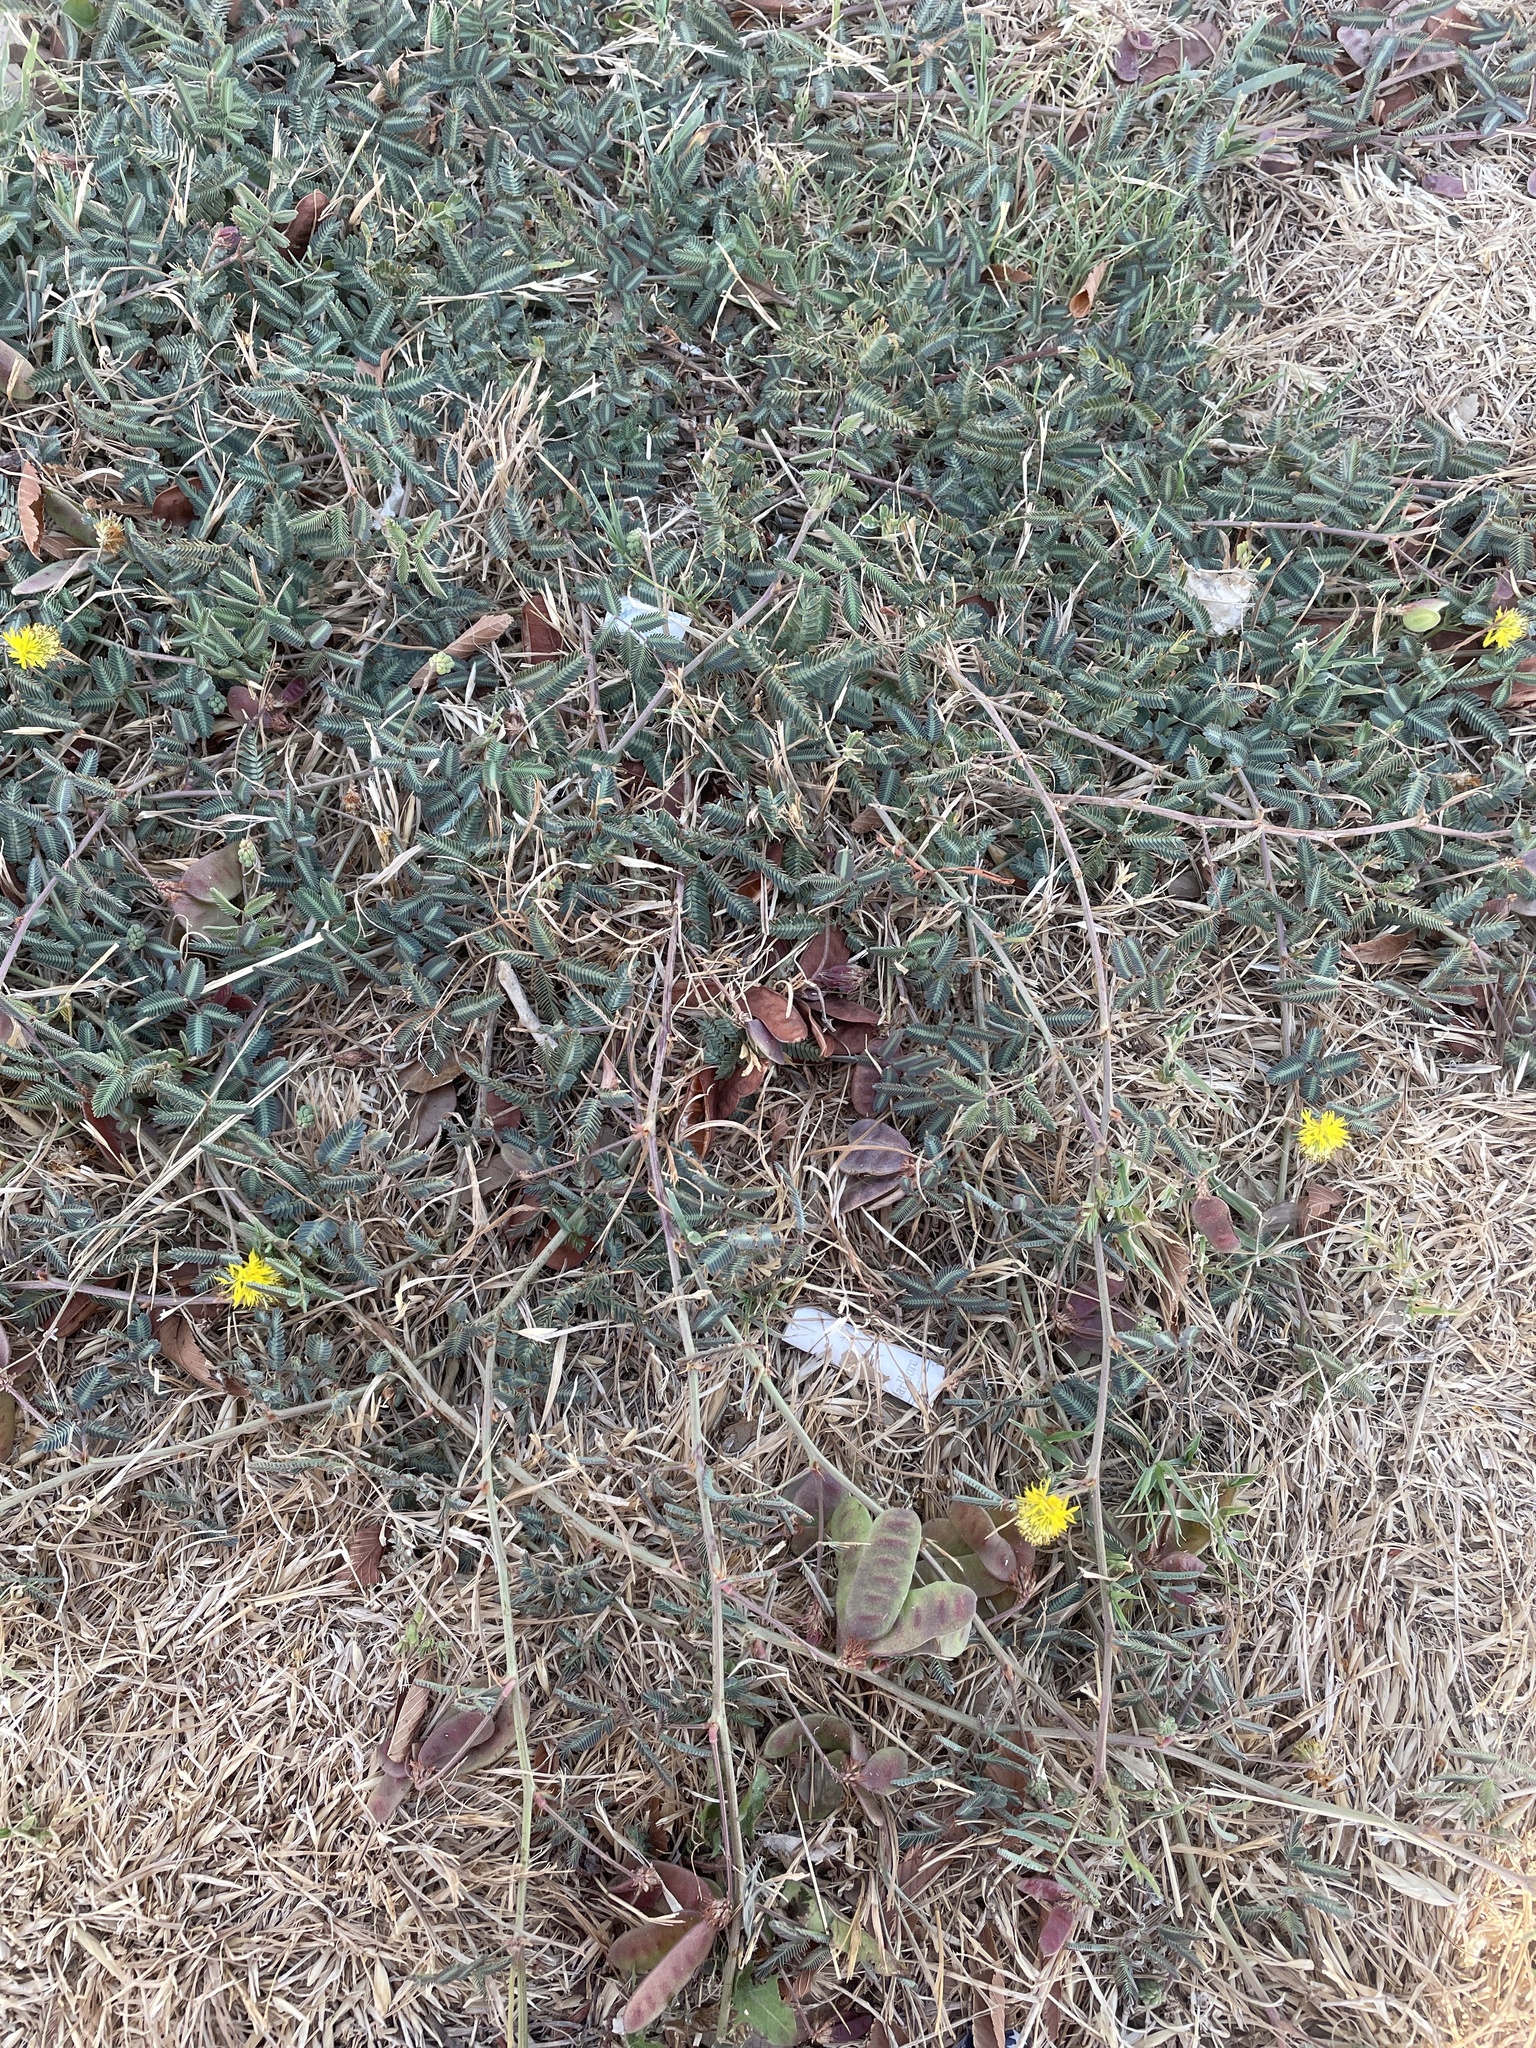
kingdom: Plantae
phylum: Tracheophyta
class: Magnoliopsida
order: Fabales
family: Fabaceae
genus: Neptunia
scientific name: Neptunia pubescens
